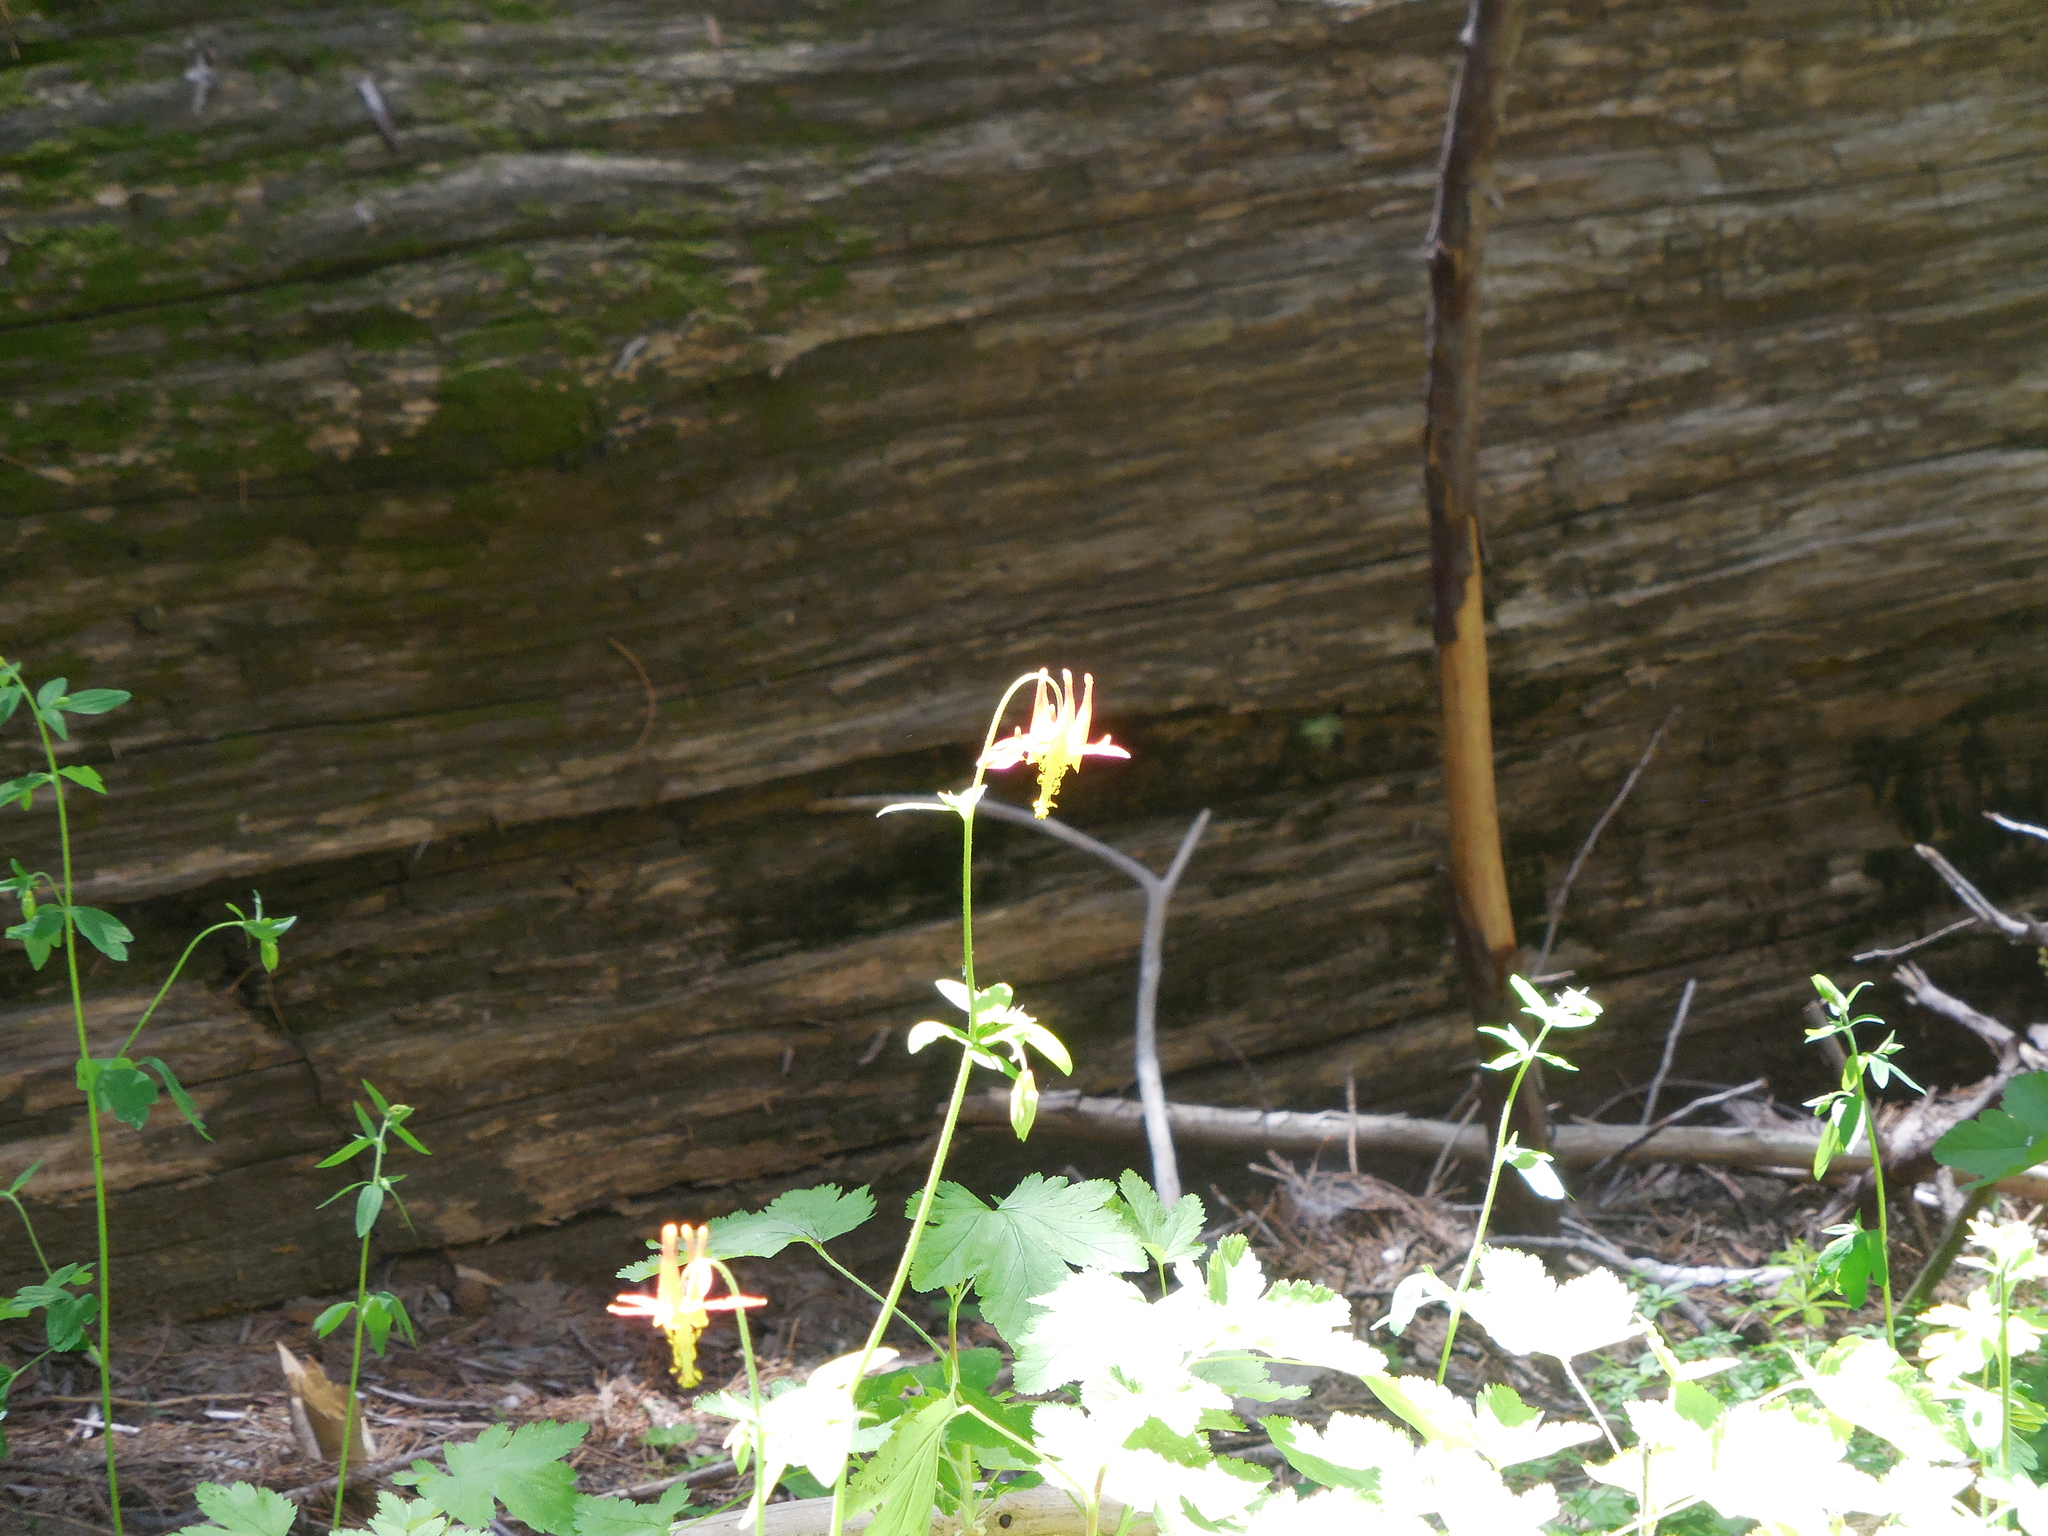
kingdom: Plantae
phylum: Tracheophyta
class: Magnoliopsida
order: Ranunculales
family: Ranunculaceae
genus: Aquilegia
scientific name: Aquilegia formosa
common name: Sitka columbine
